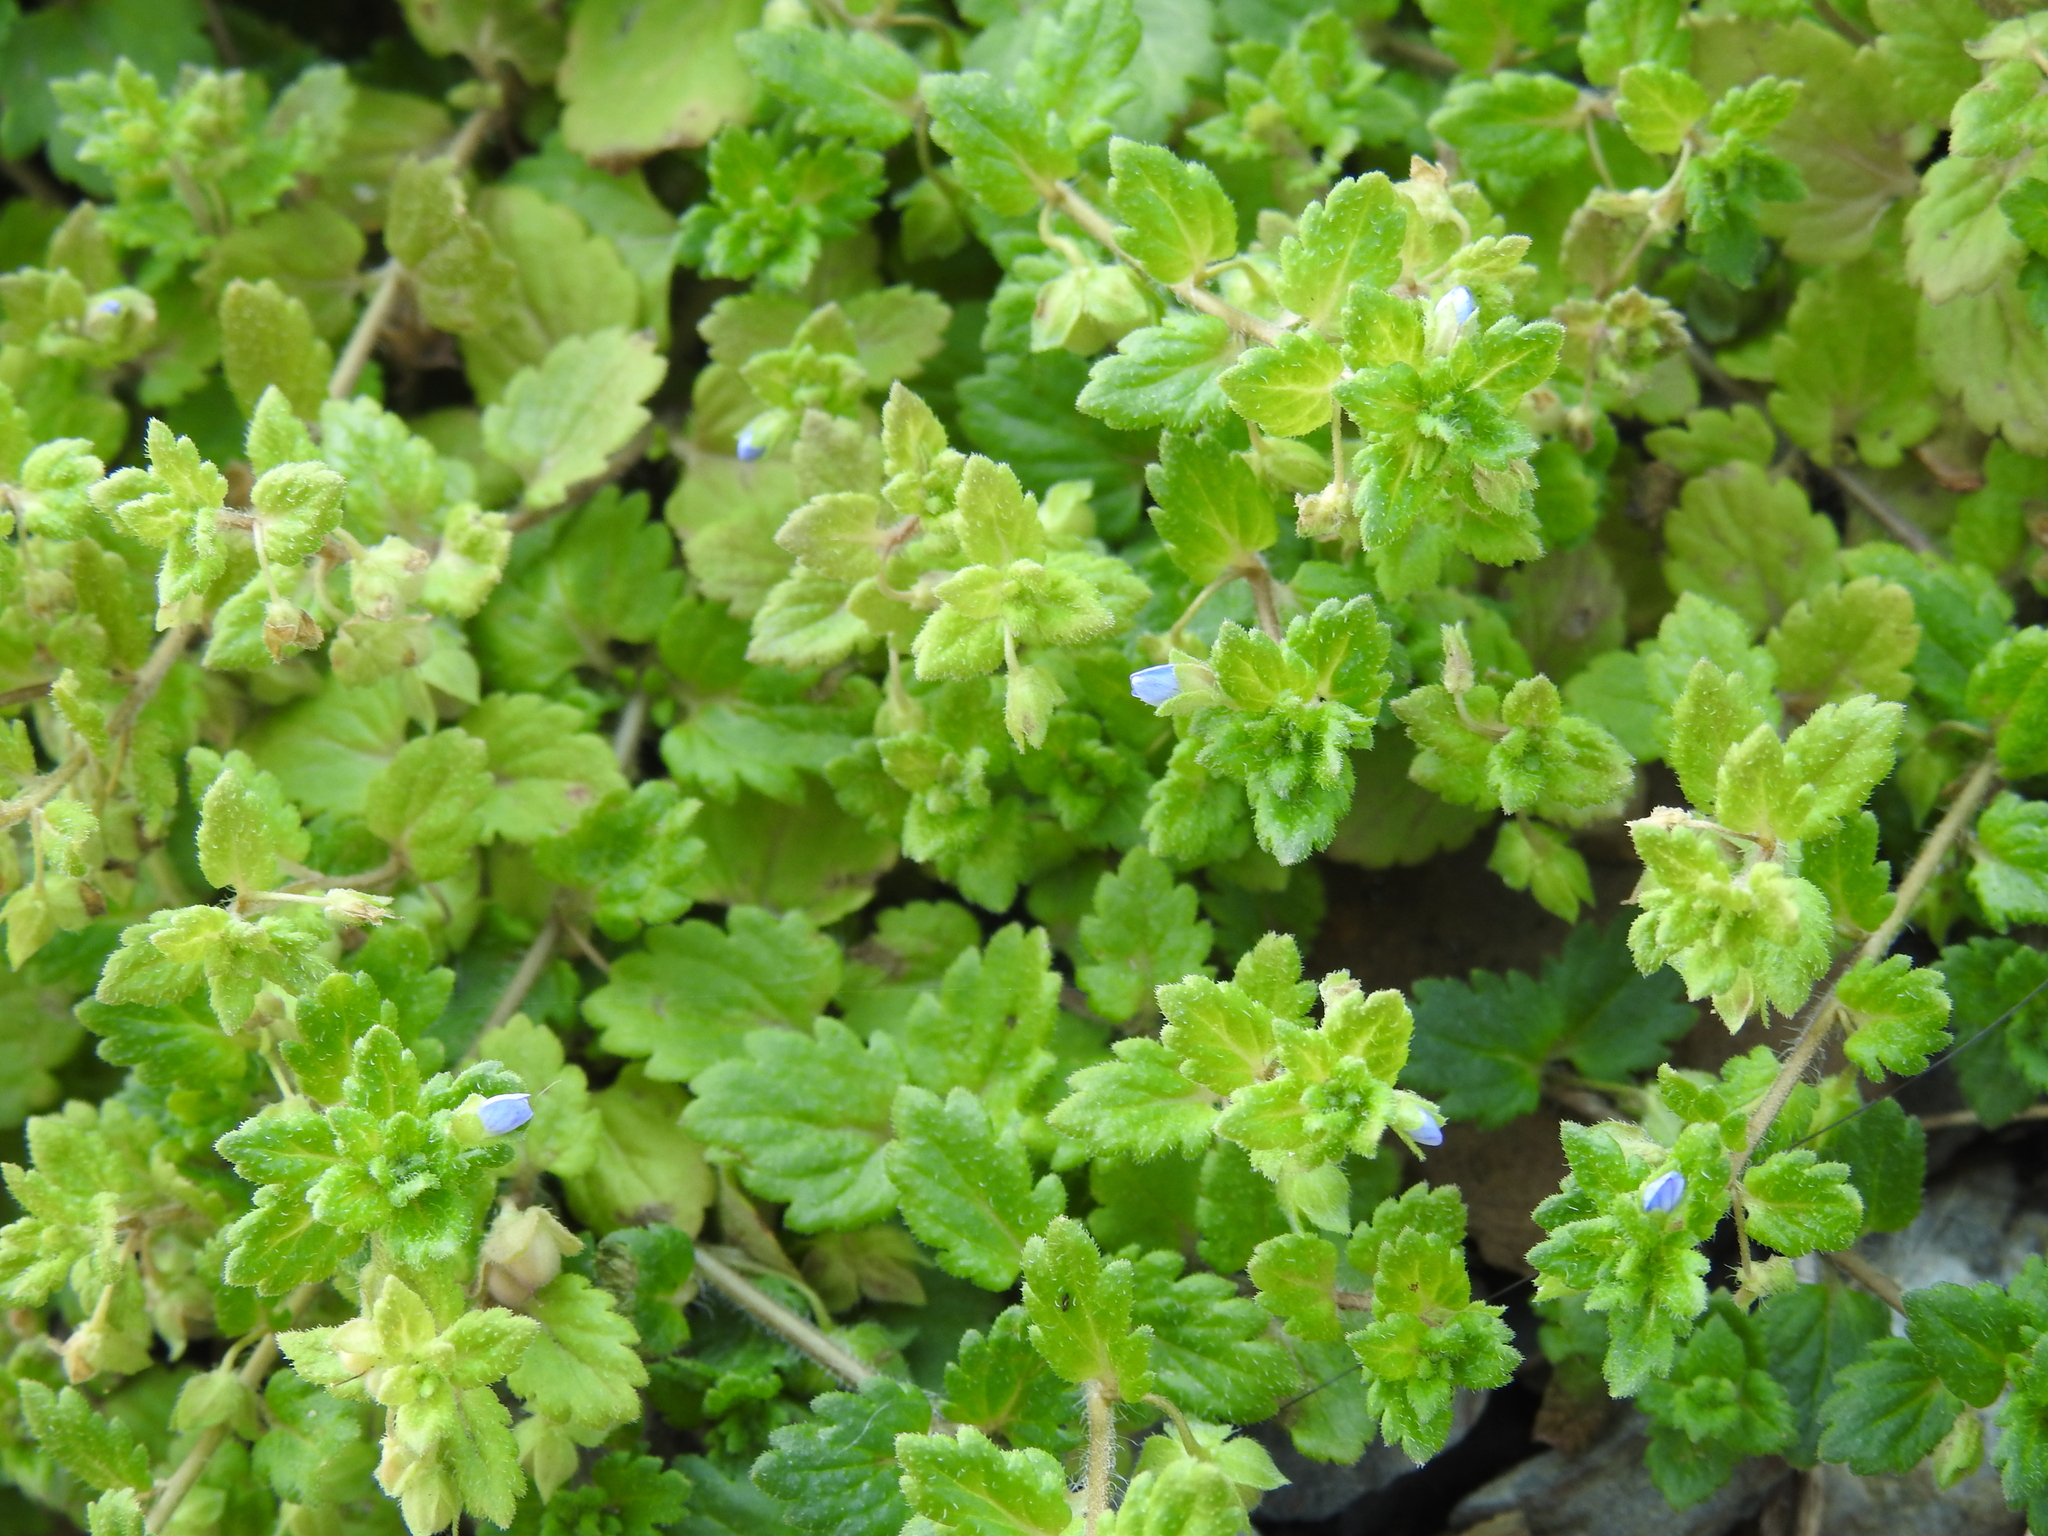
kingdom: Plantae
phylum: Tracheophyta
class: Magnoliopsida
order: Lamiales
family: Plantaginaceae
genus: Veronica
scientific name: Veronica polita
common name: Grey field-speedwell
